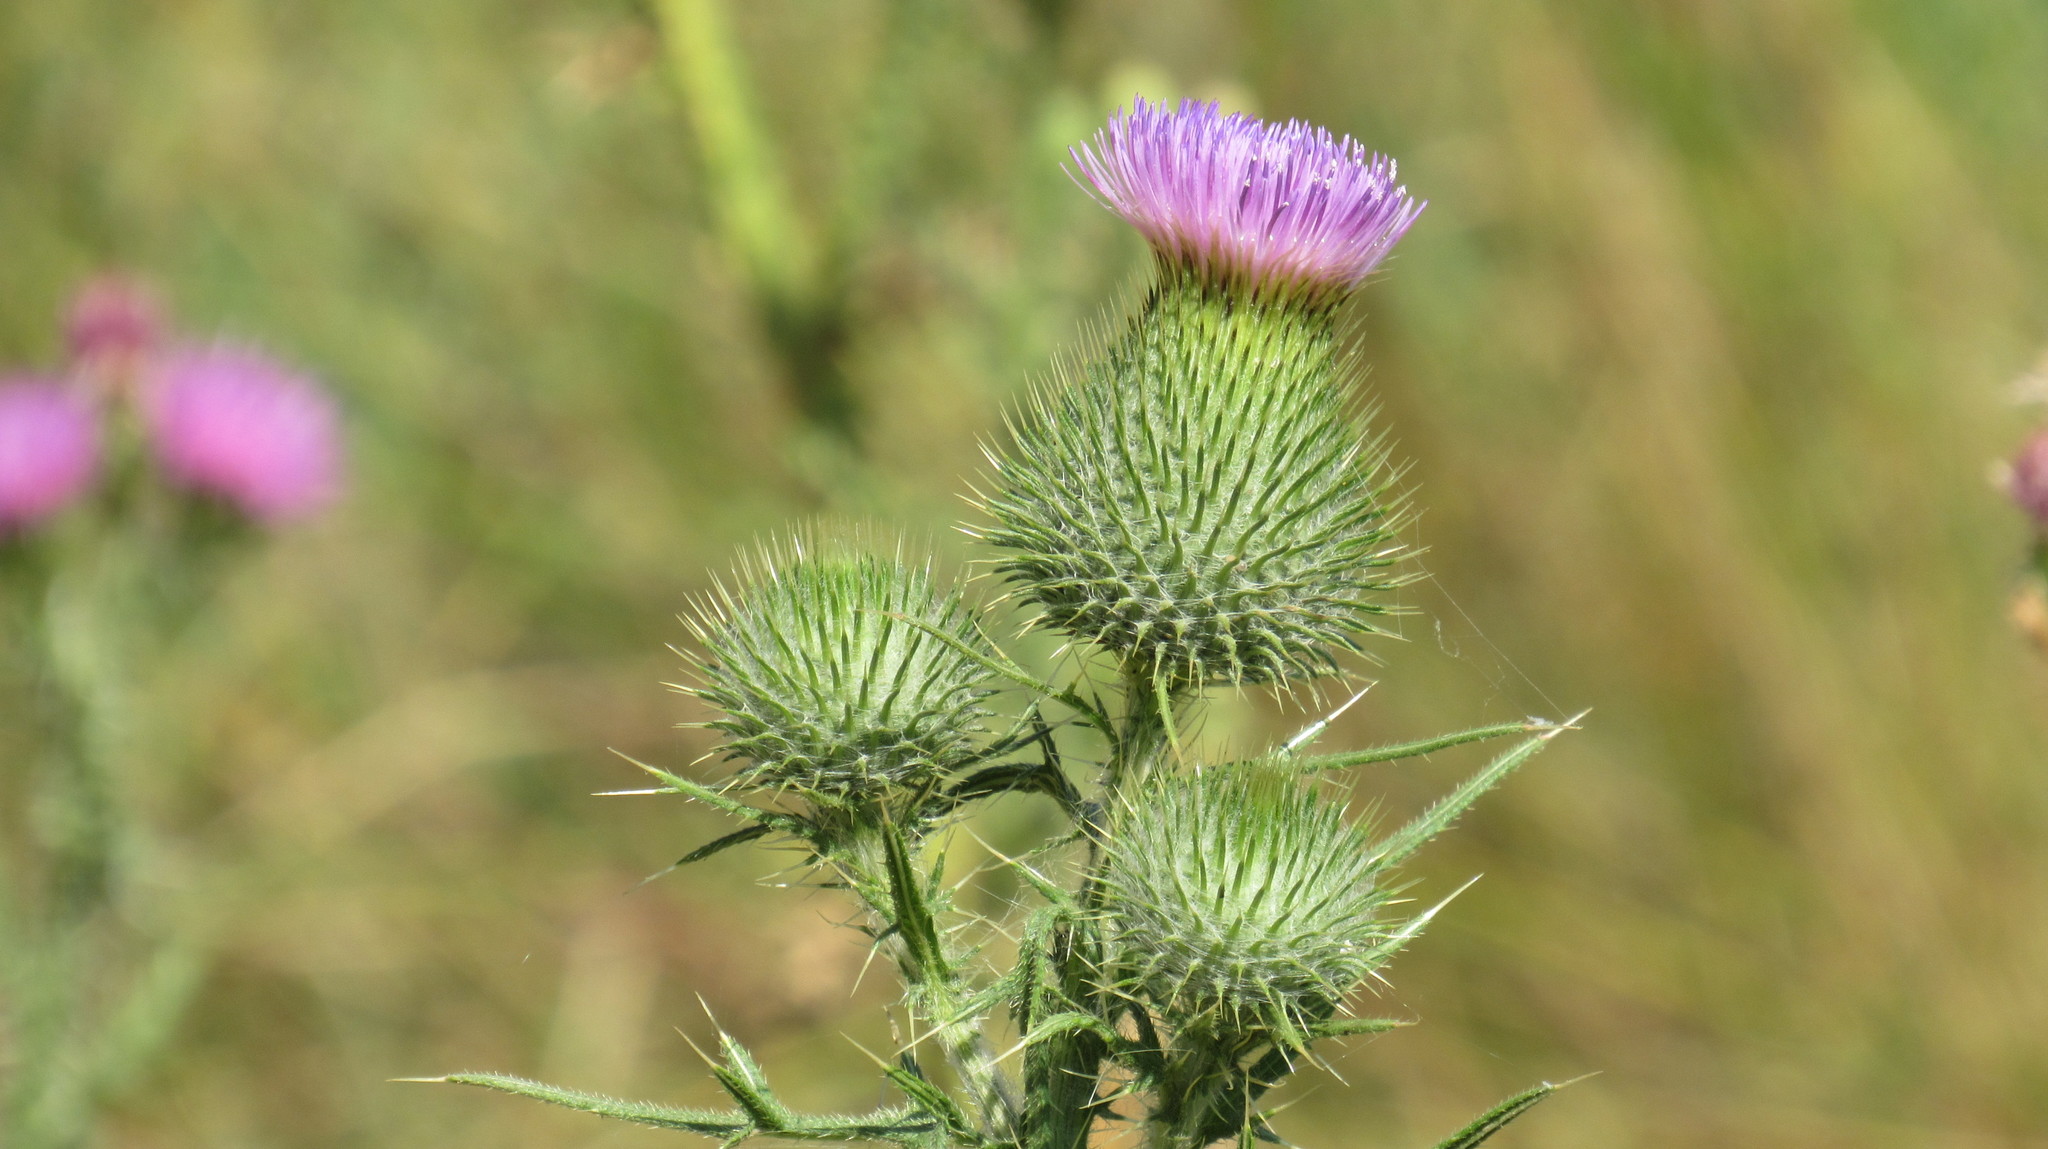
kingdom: Plantae
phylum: Tracheophyta
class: Magnoliopsida
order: Asterales
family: Asteraceae
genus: Cirsium
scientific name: Cirsium vulgare
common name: Bull thistle
